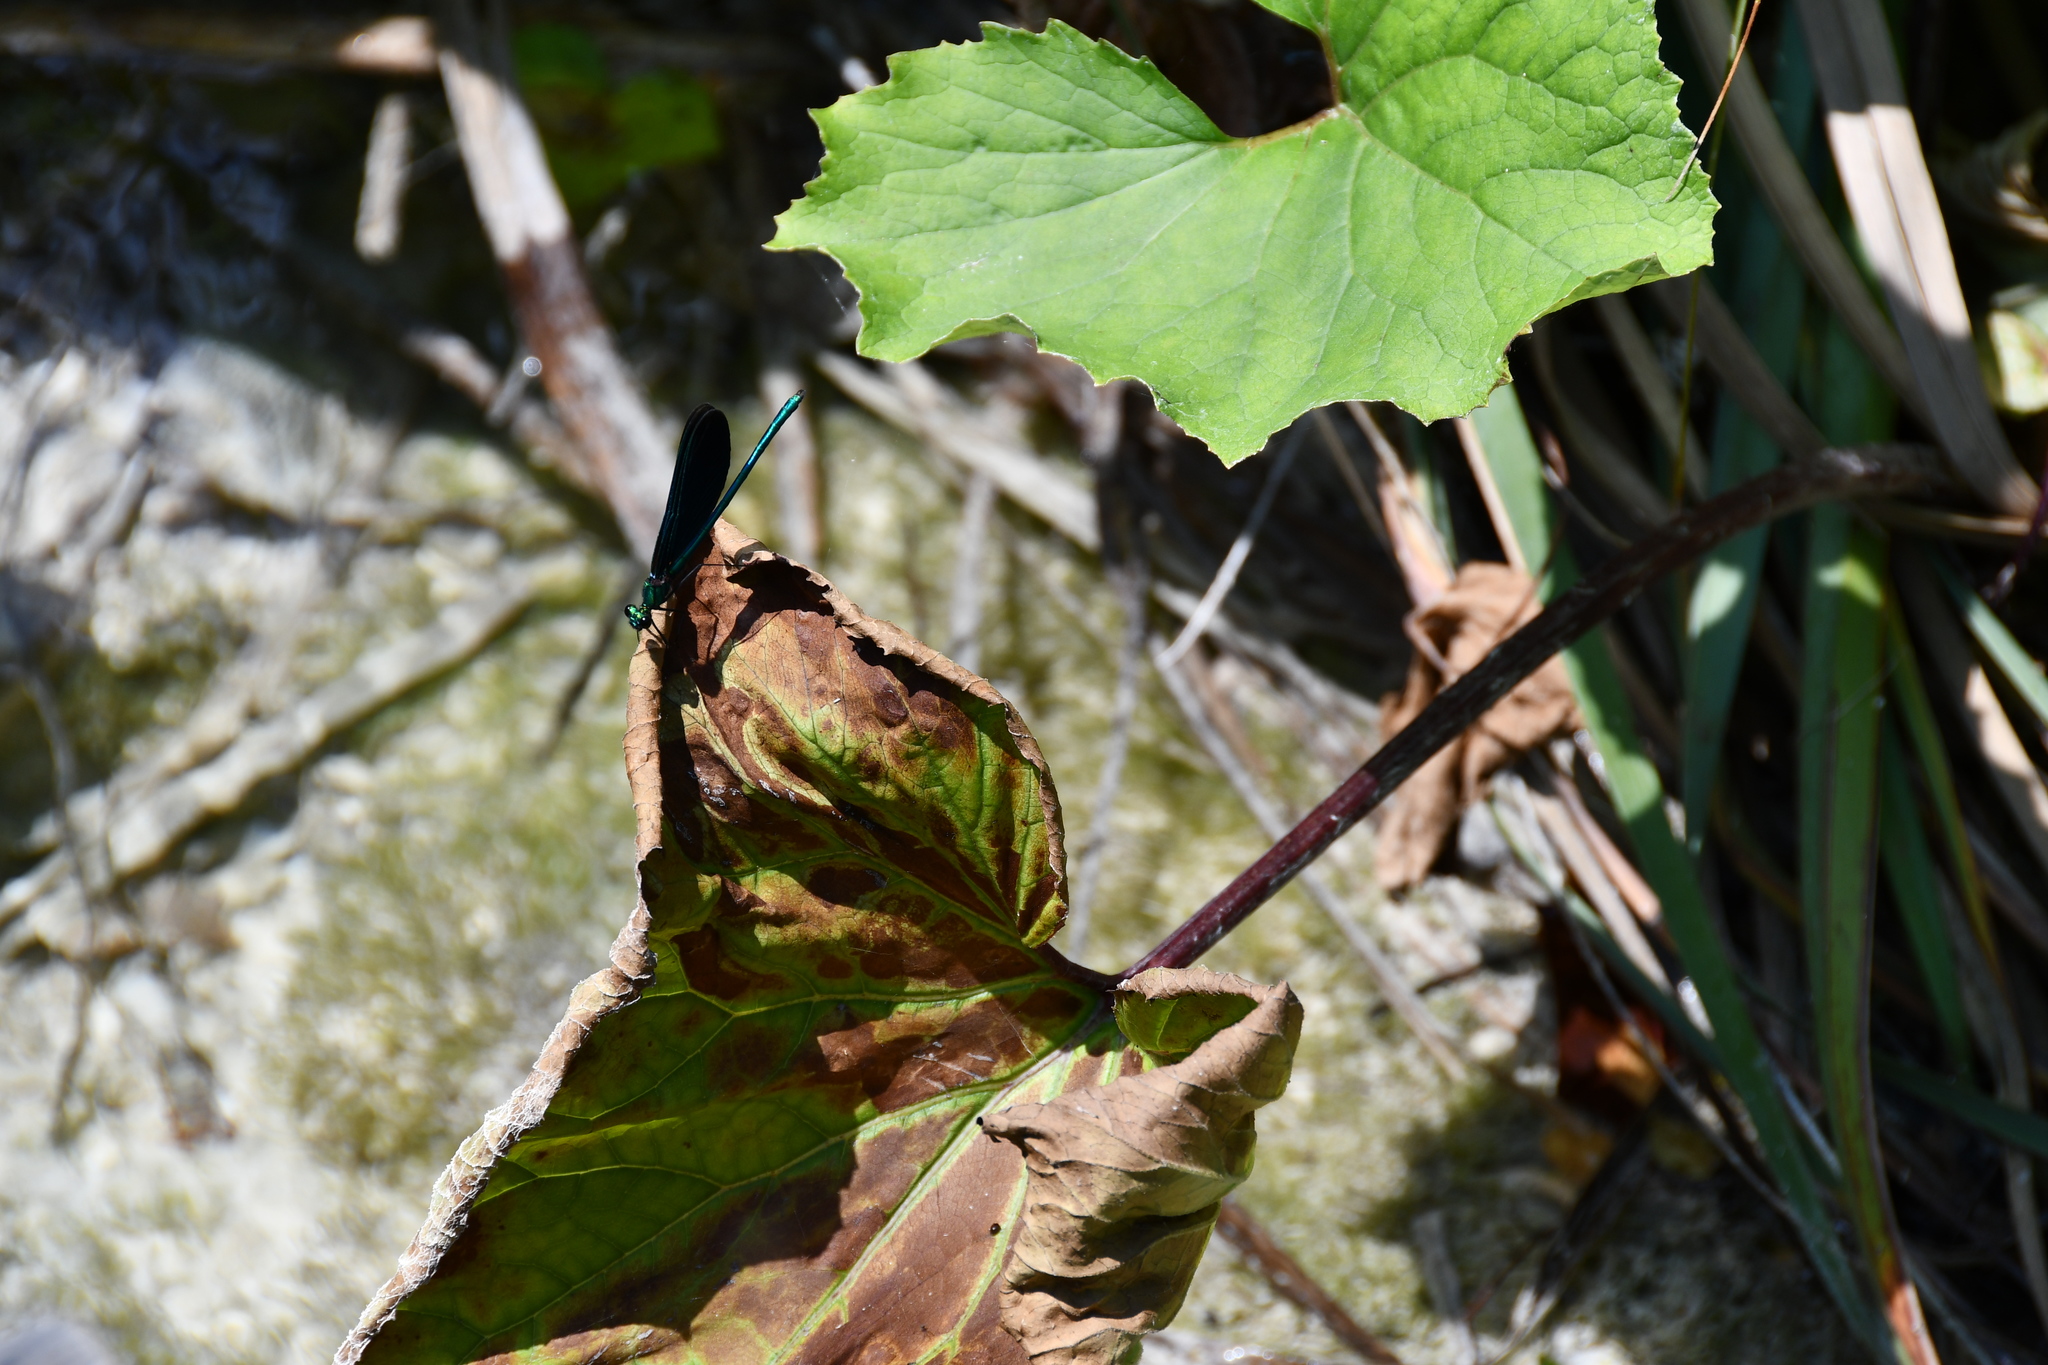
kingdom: Animalia
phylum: Arthropoda
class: Insecta
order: Odonata
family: Calopterygidae
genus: Calopteryx
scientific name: Calopteryx virgo
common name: Beautiful demoiselle
